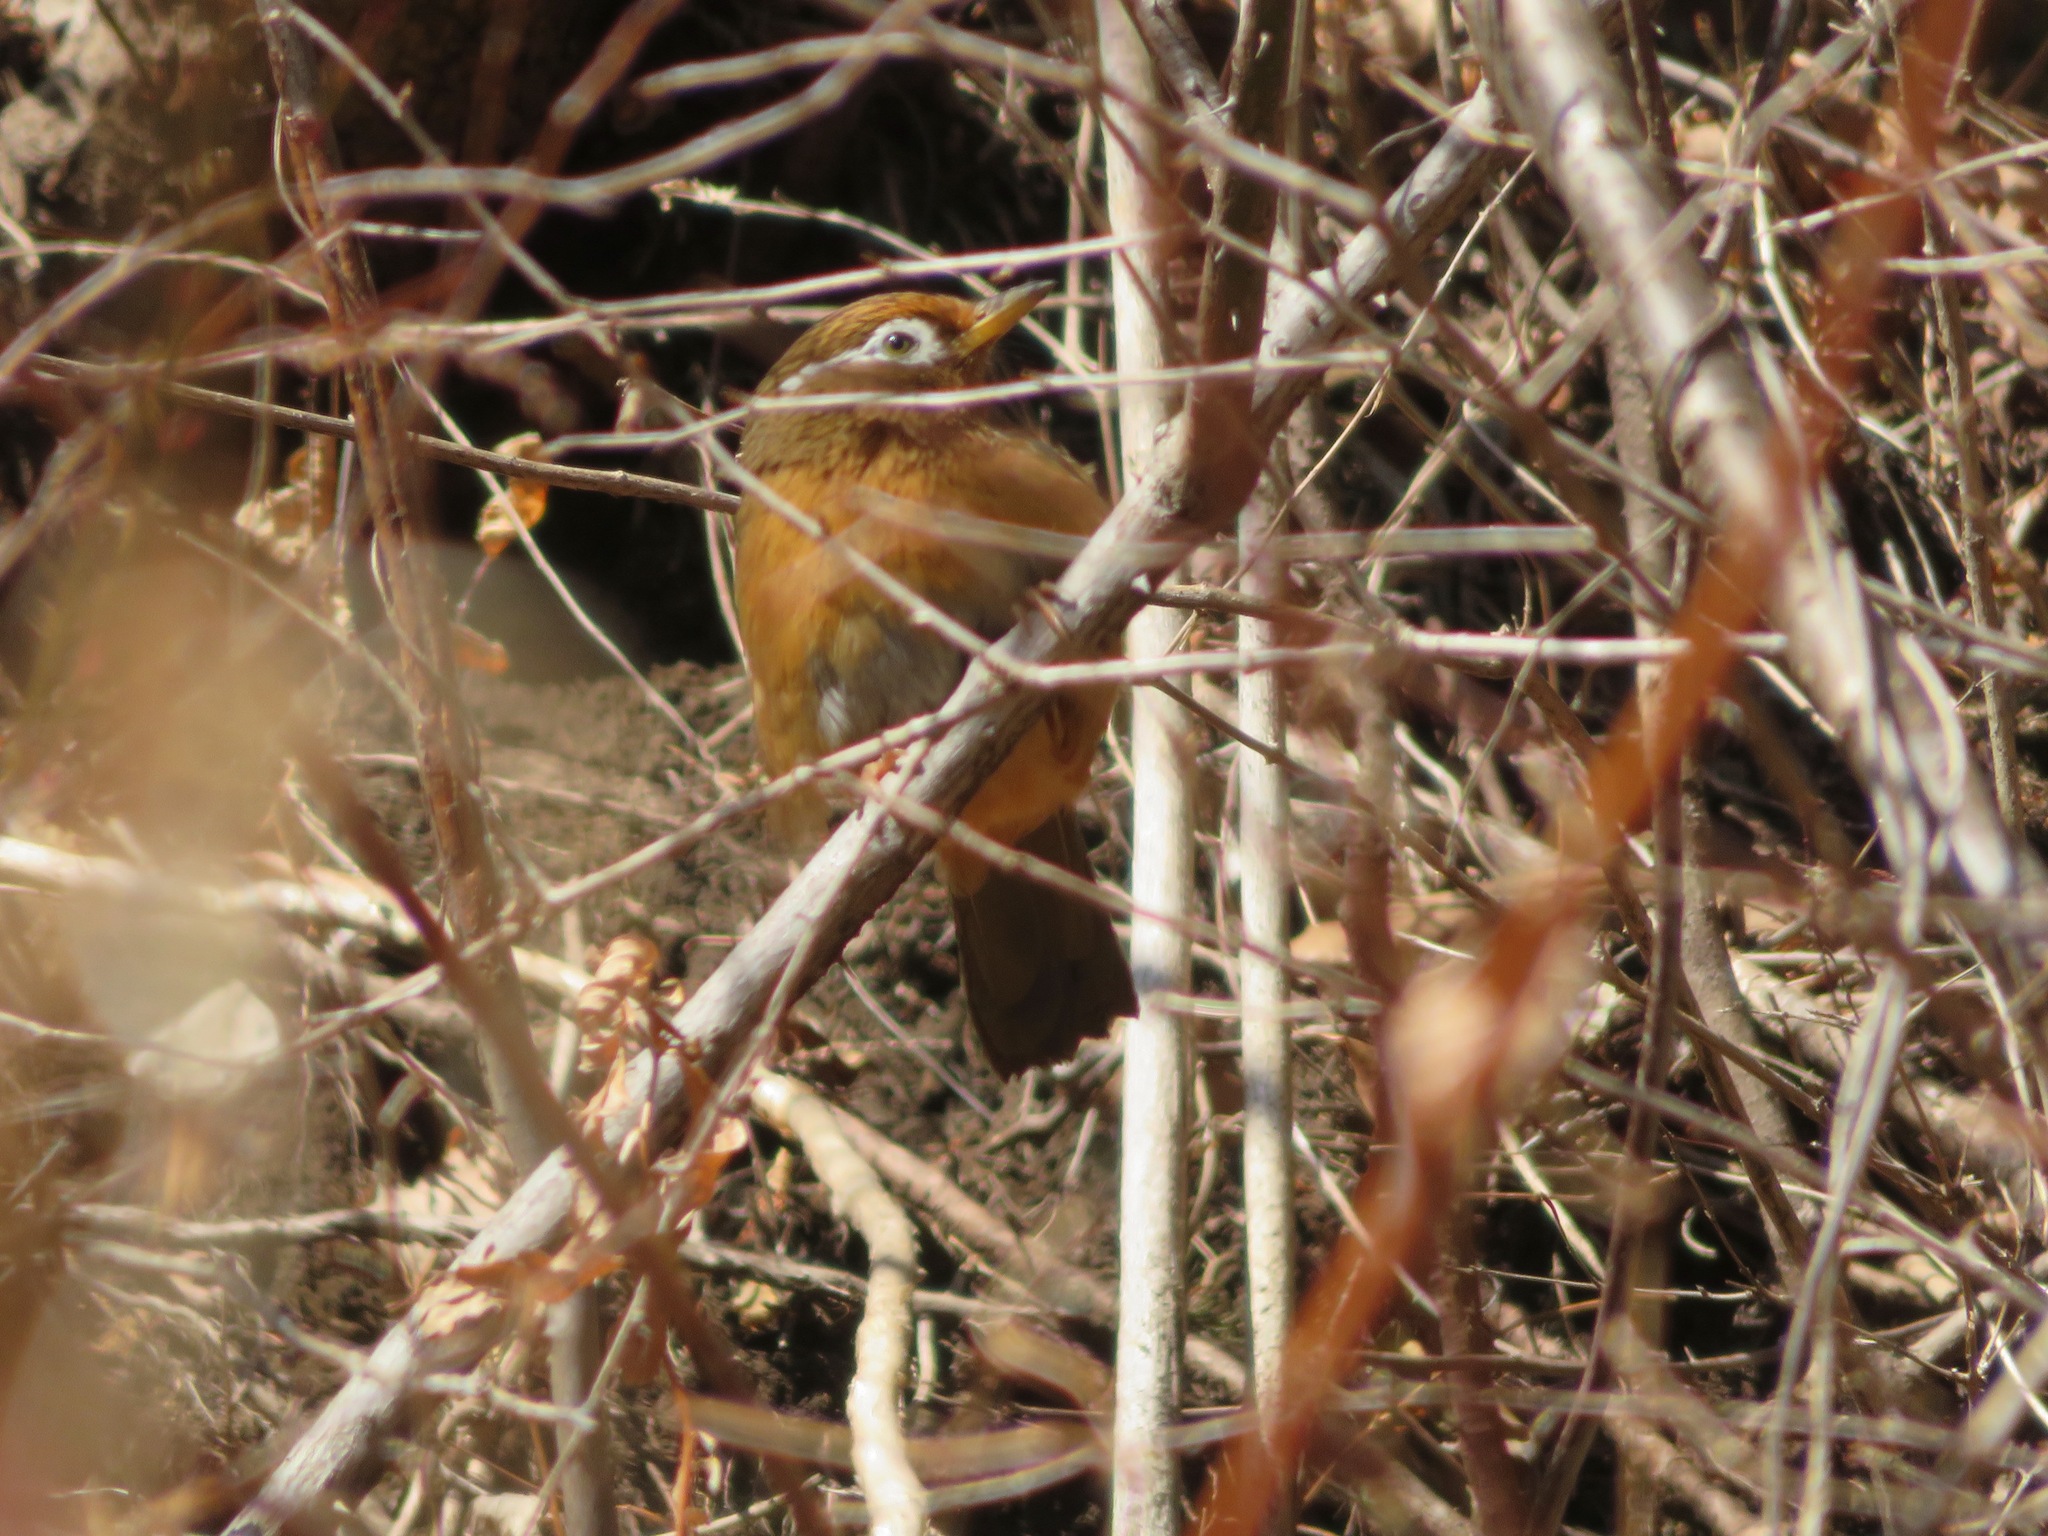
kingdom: Animalia
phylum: Chordata
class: Aves
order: Passeriformes
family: Leiothrichidae
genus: Garrulax
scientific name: Garrulax canorus
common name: Chinese hwamei
